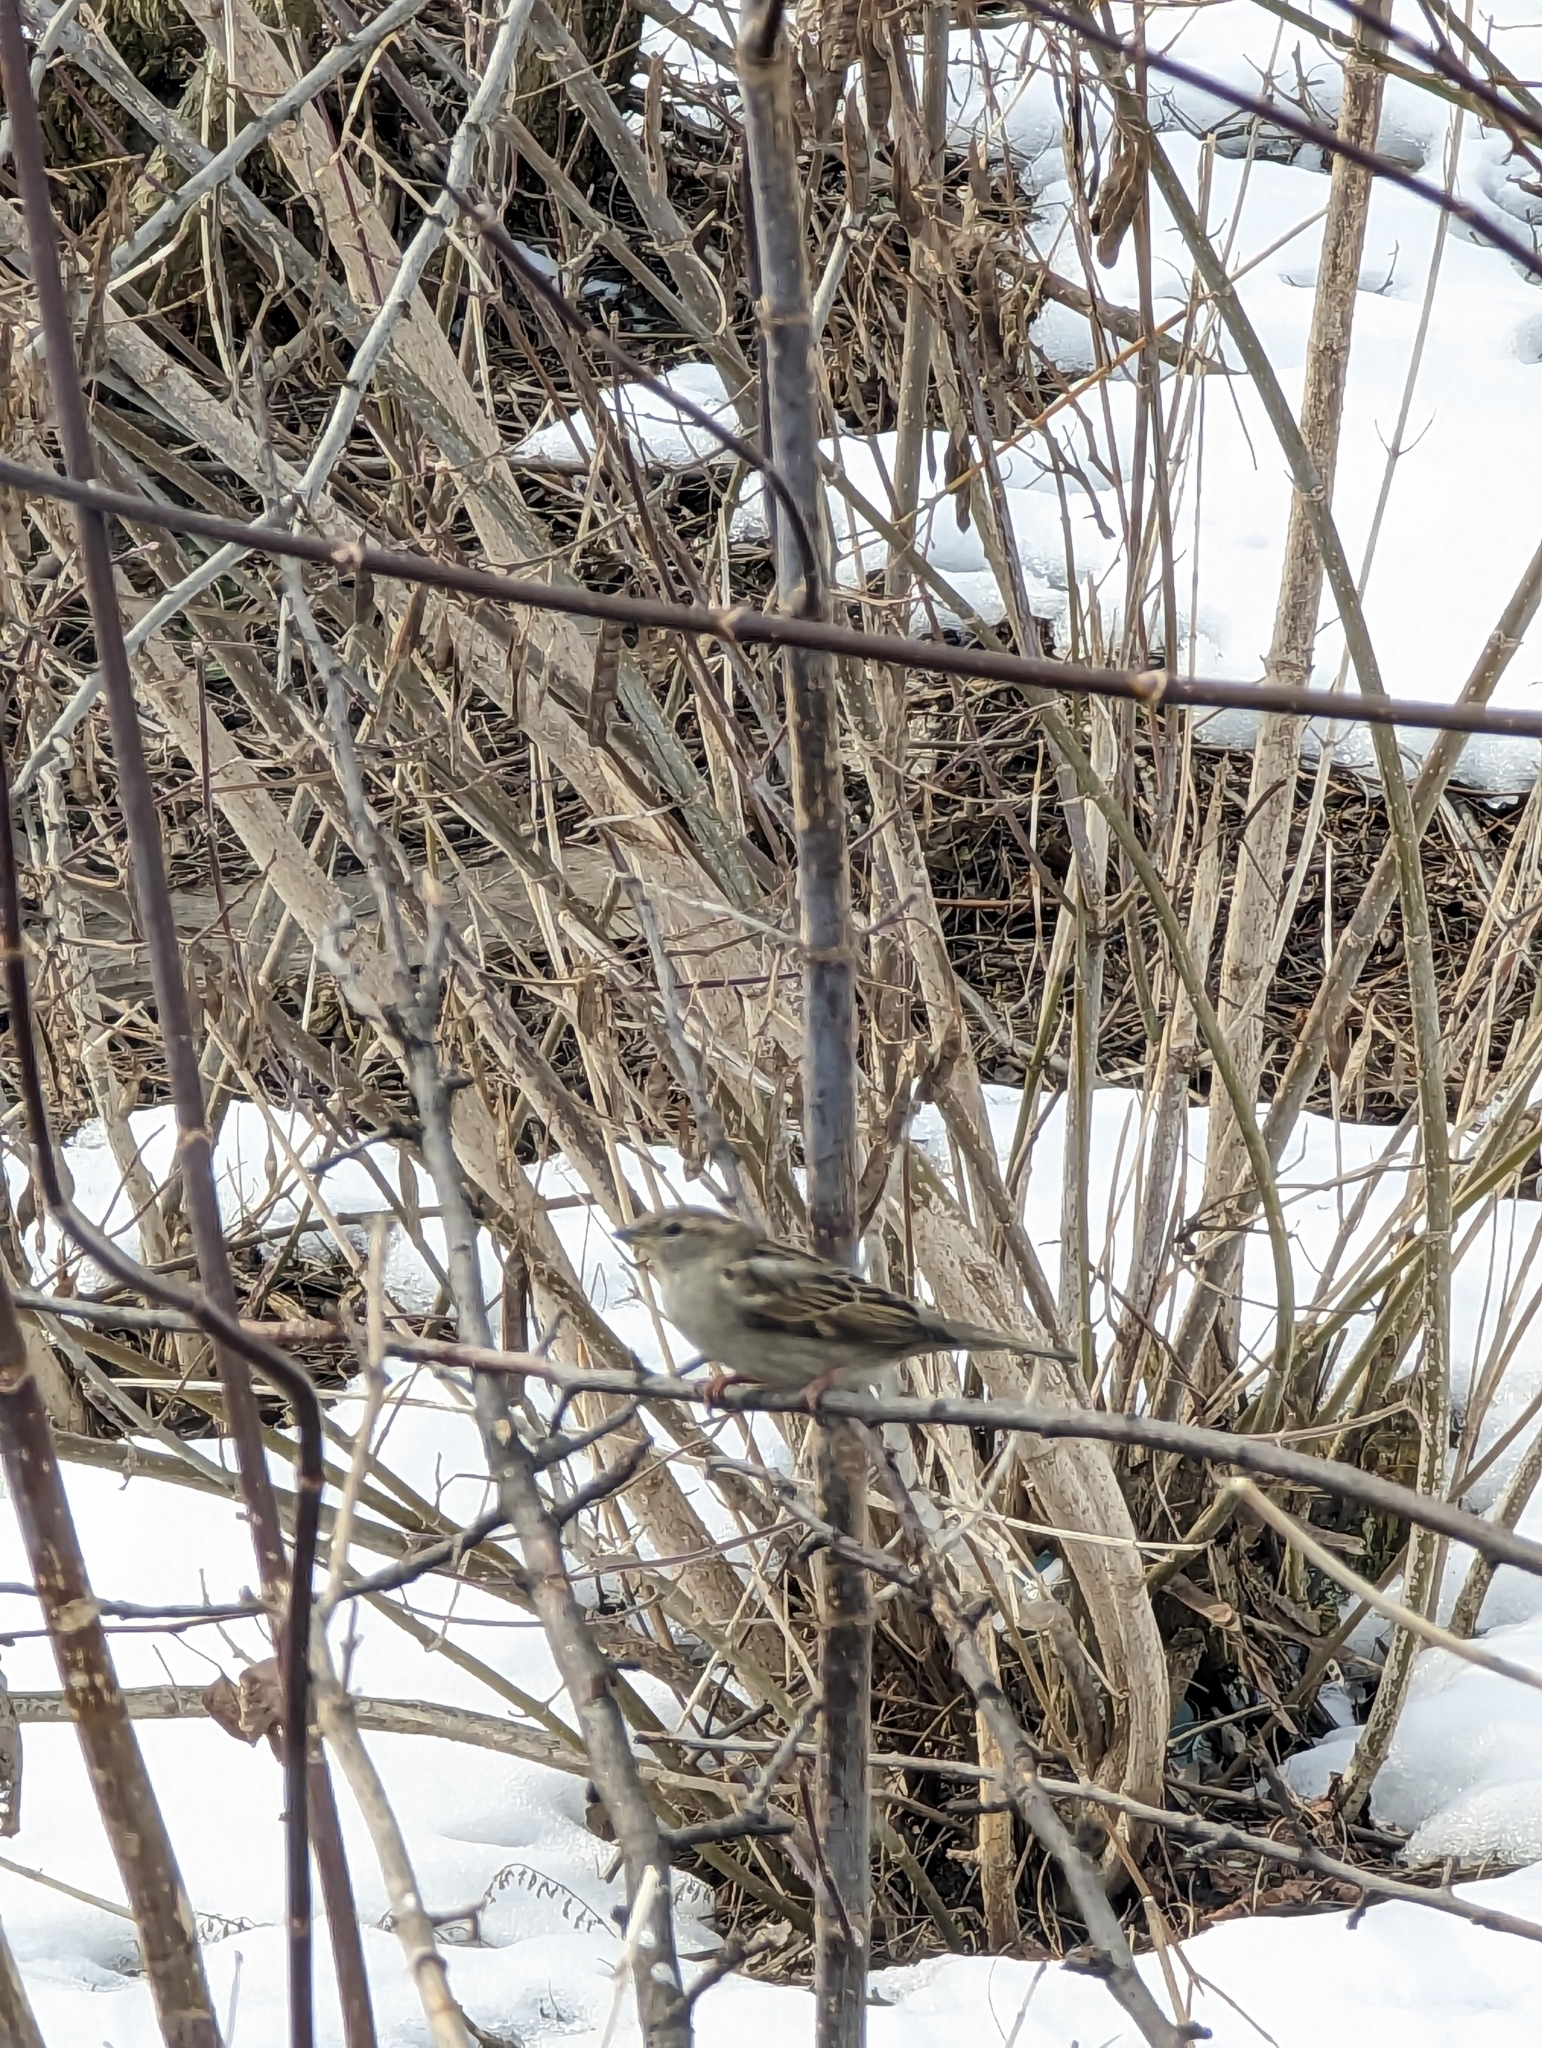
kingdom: Animalia
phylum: Chordata
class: Aves
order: Passeriformes
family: Passeridae
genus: Passer
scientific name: Passer domesticus
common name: House sparrow
